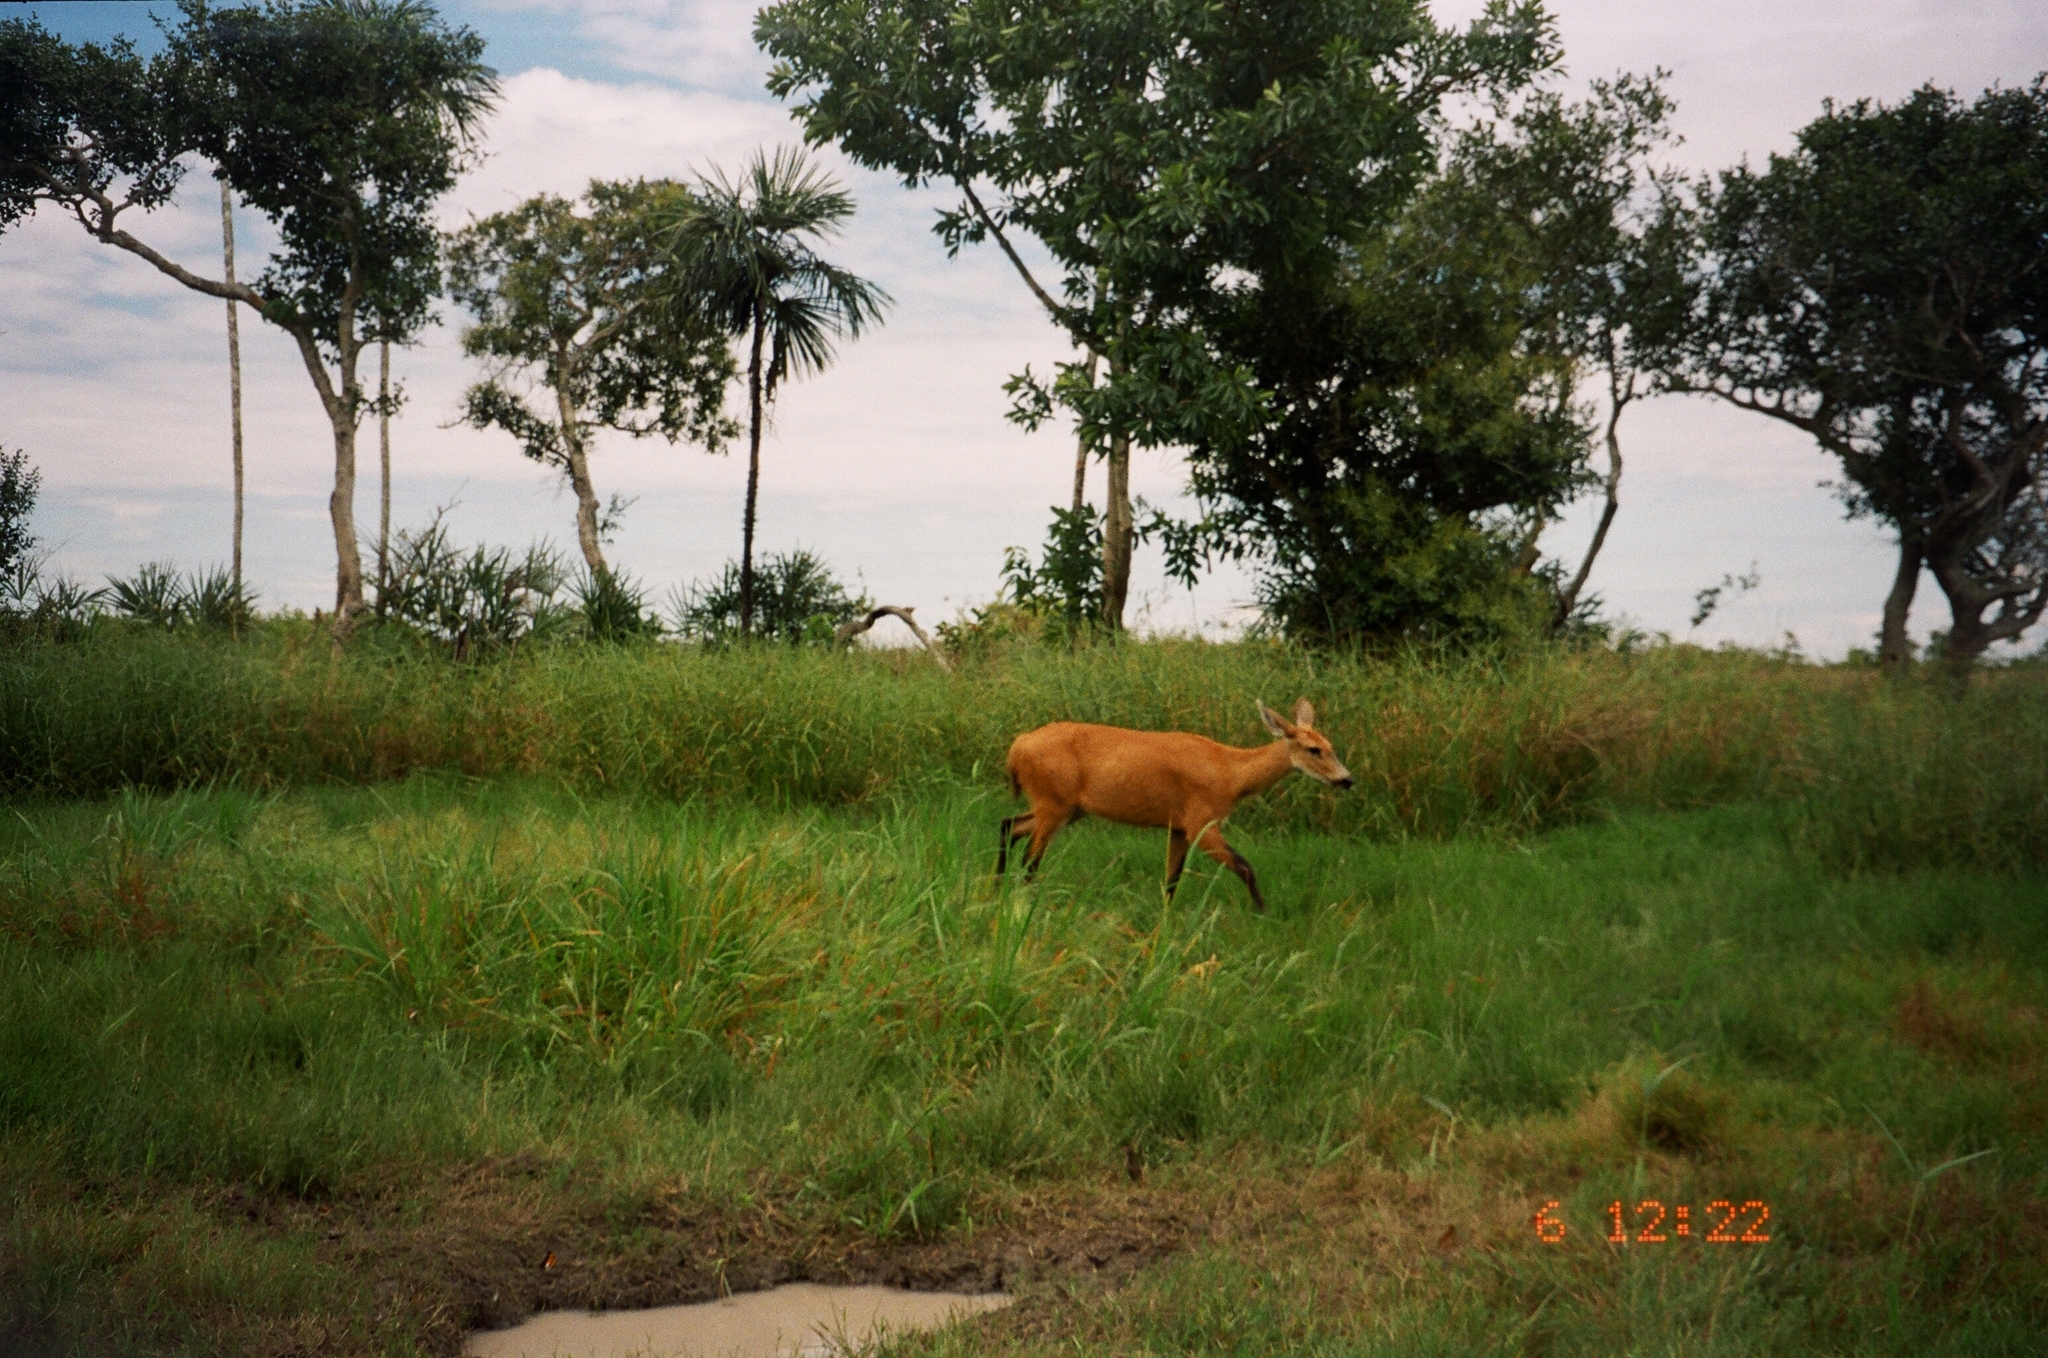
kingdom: Animalia
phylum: Chordata
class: Mammalia
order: Artiodactyla
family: Cervidae
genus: Blastocerus
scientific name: Blastocerus dichotomus
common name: Marsh deer
